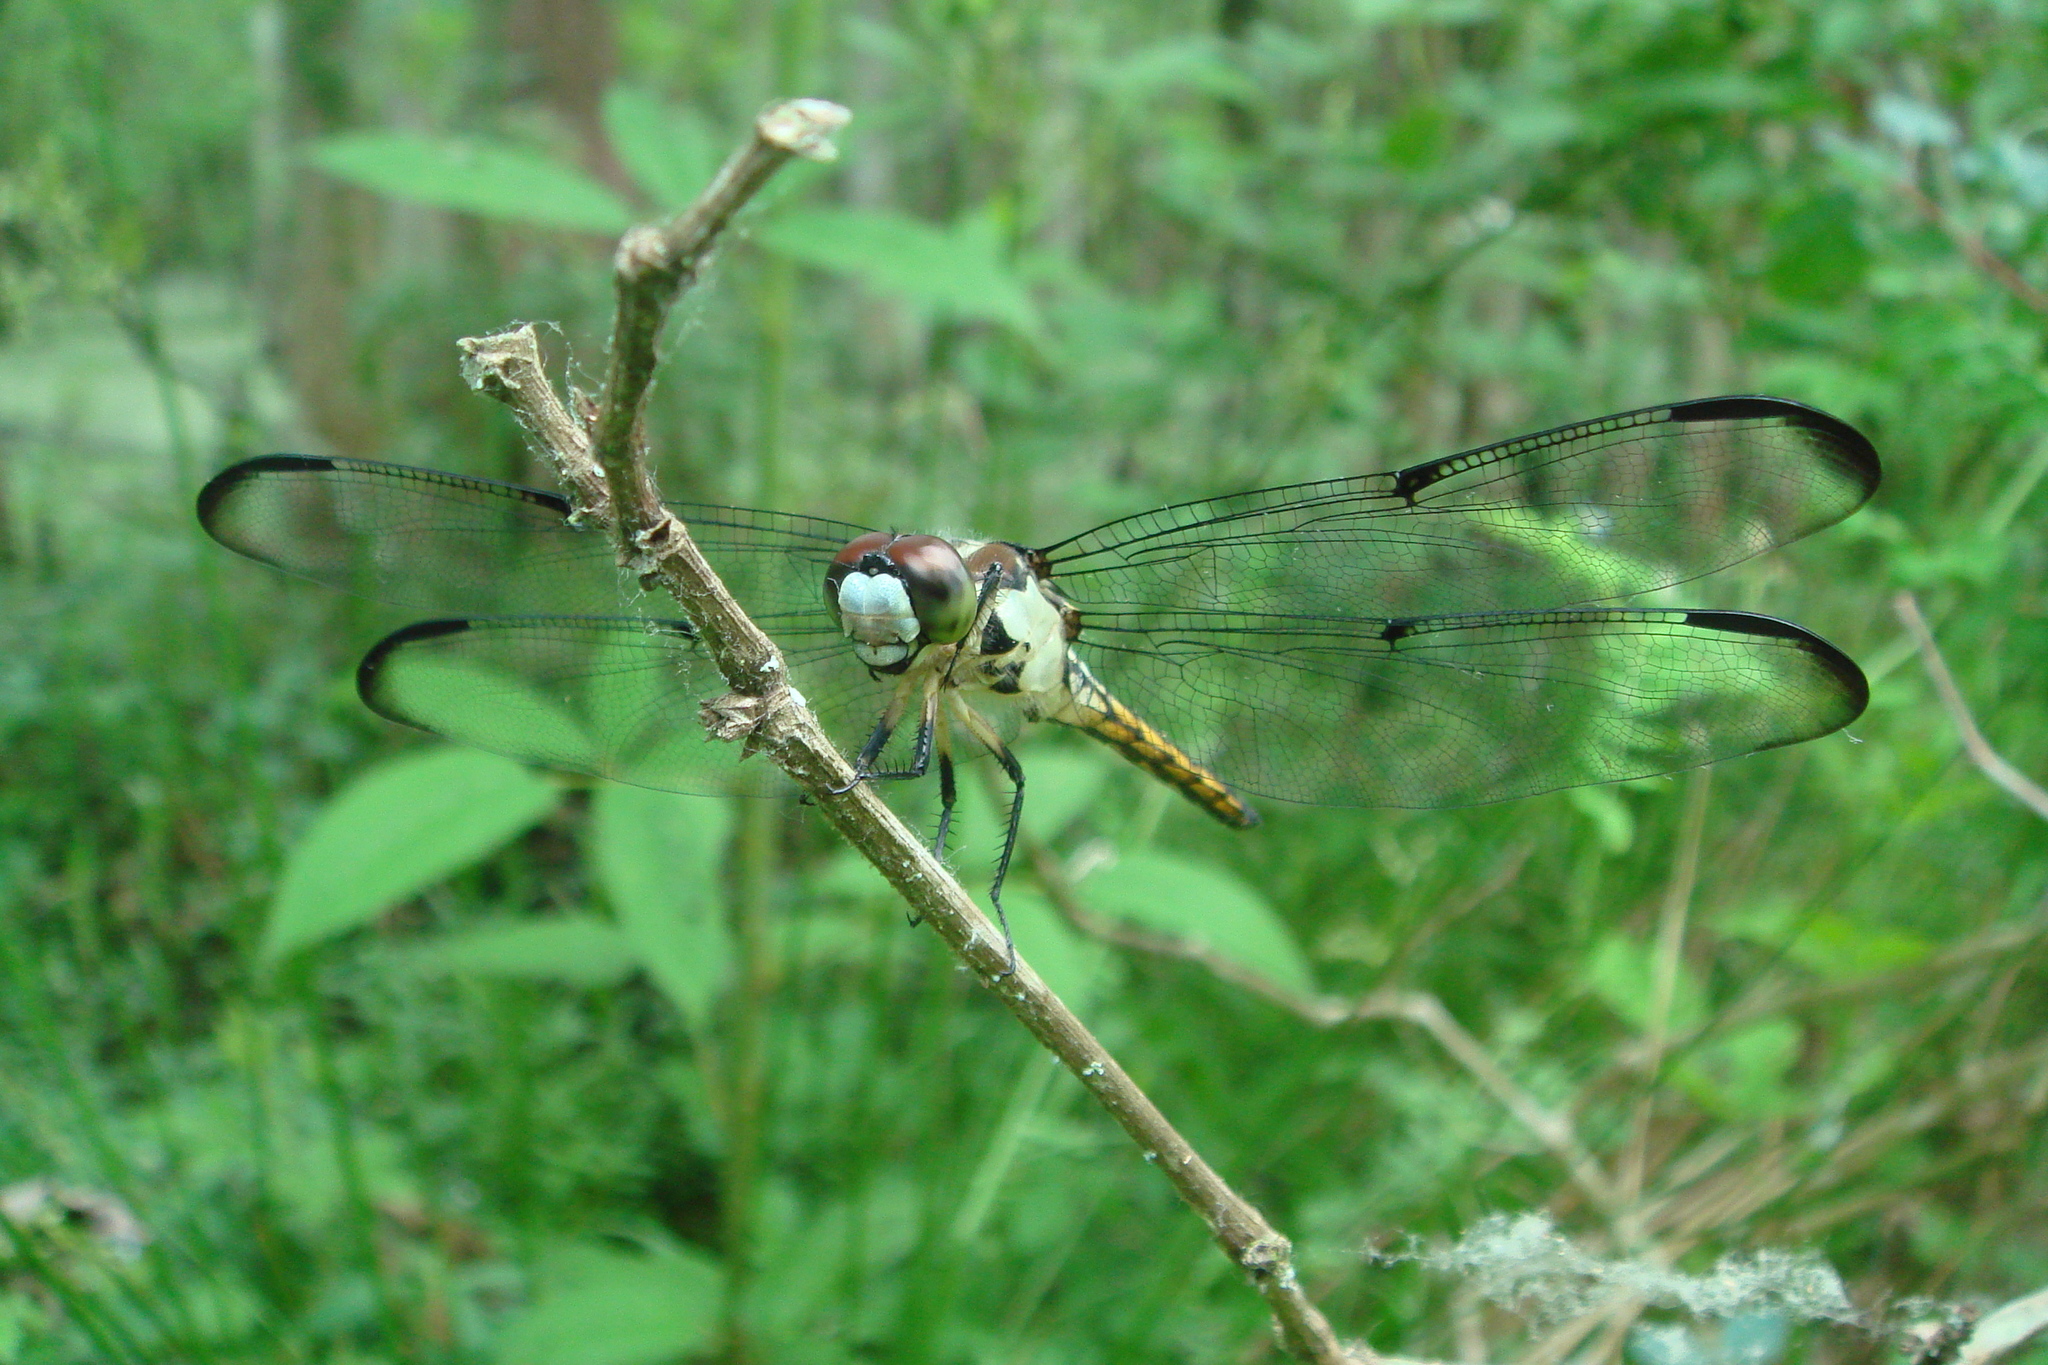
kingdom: Animalia
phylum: Arthropoda
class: Insecta
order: Odonata
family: Libellulidae
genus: Libellula
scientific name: Libellula vibrans
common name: Great blue skimmer
